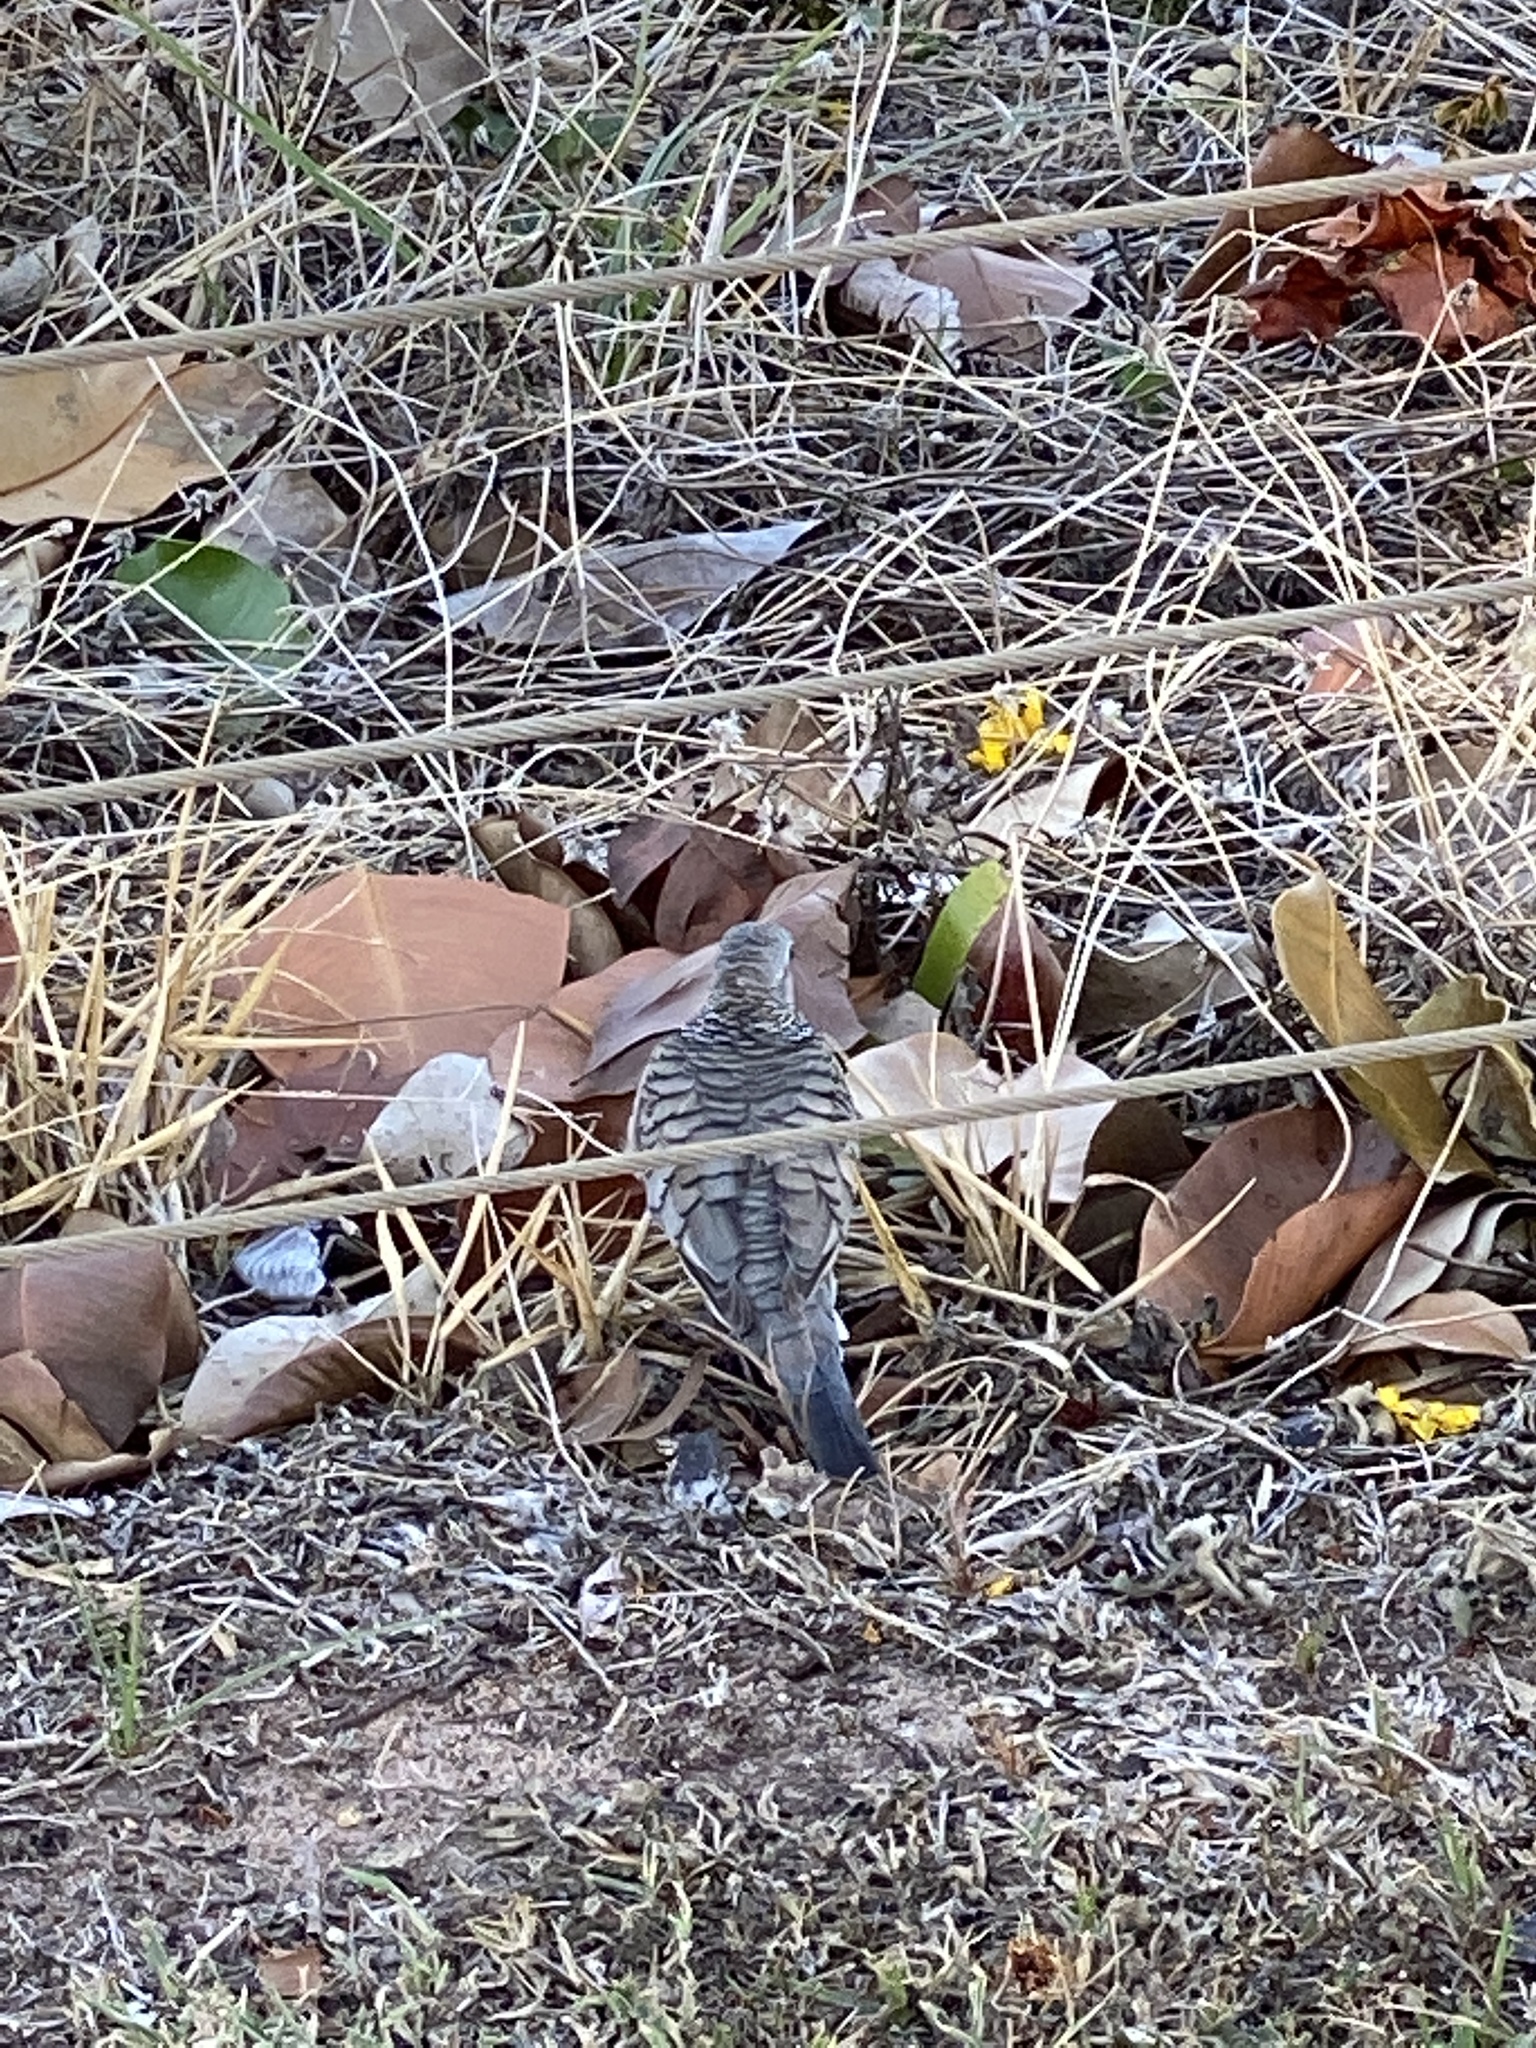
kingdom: Animalia
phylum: Chordata
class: Aves
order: Columbiformes
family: Columbidae
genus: Geopelia
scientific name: Geopelia placida
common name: Peaceful dove
